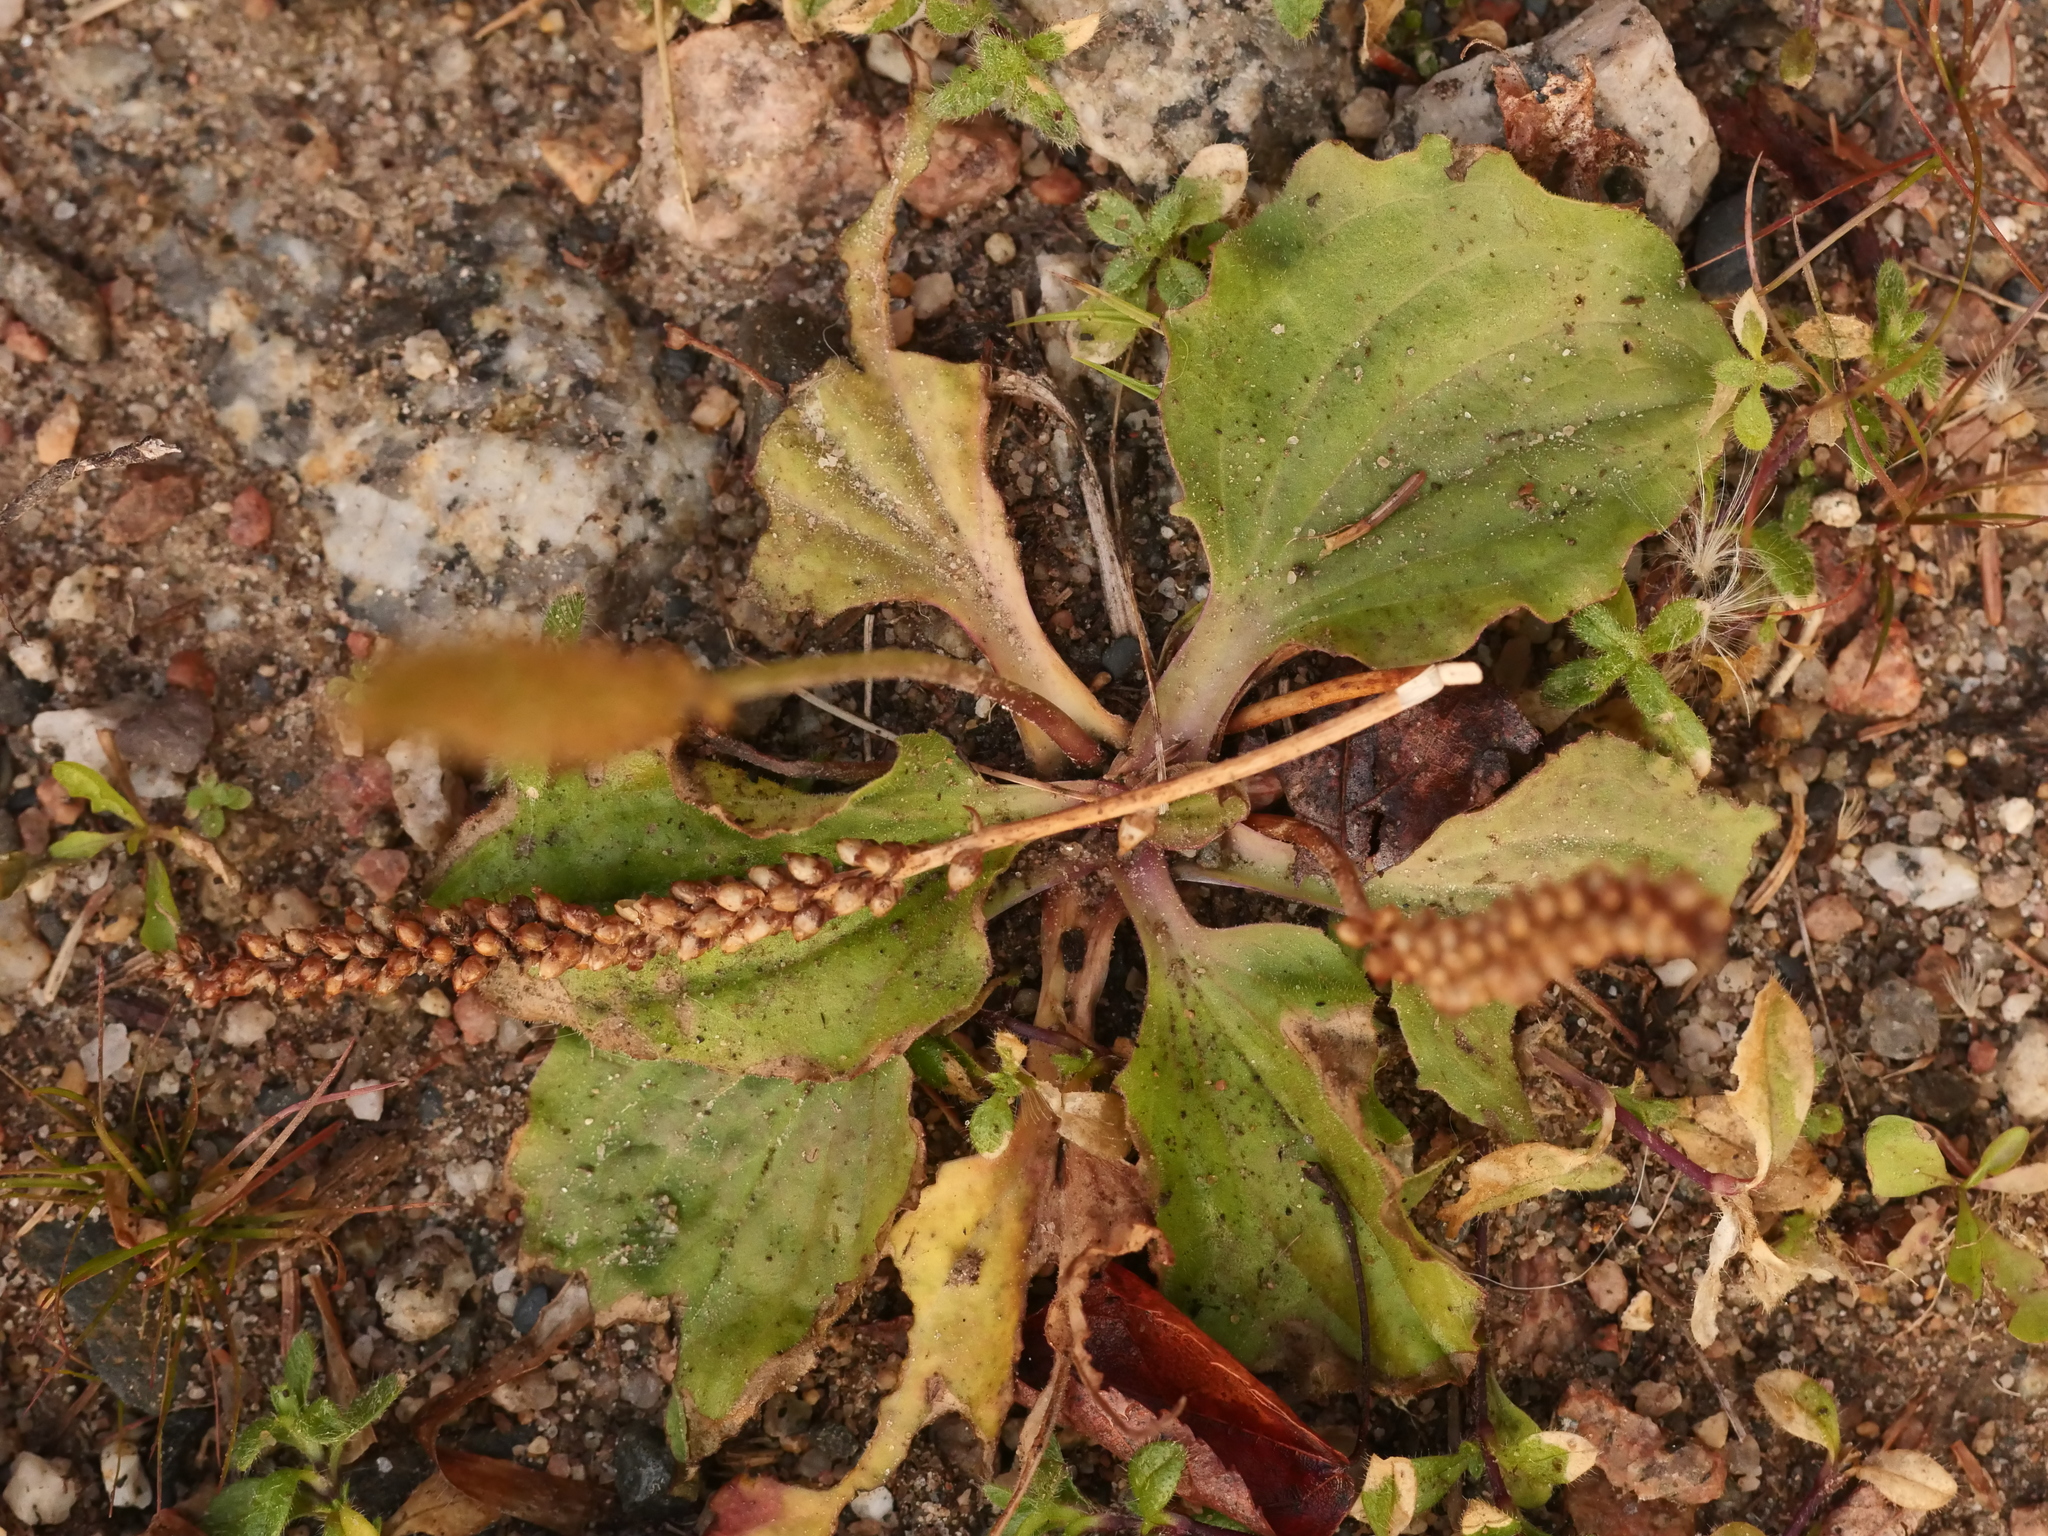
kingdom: Plantae
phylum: Tracheophyta
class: Magnoliopsida
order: Lamiales
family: Plantaginaceae
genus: Plantago
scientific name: Plantago major
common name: Common plantain
